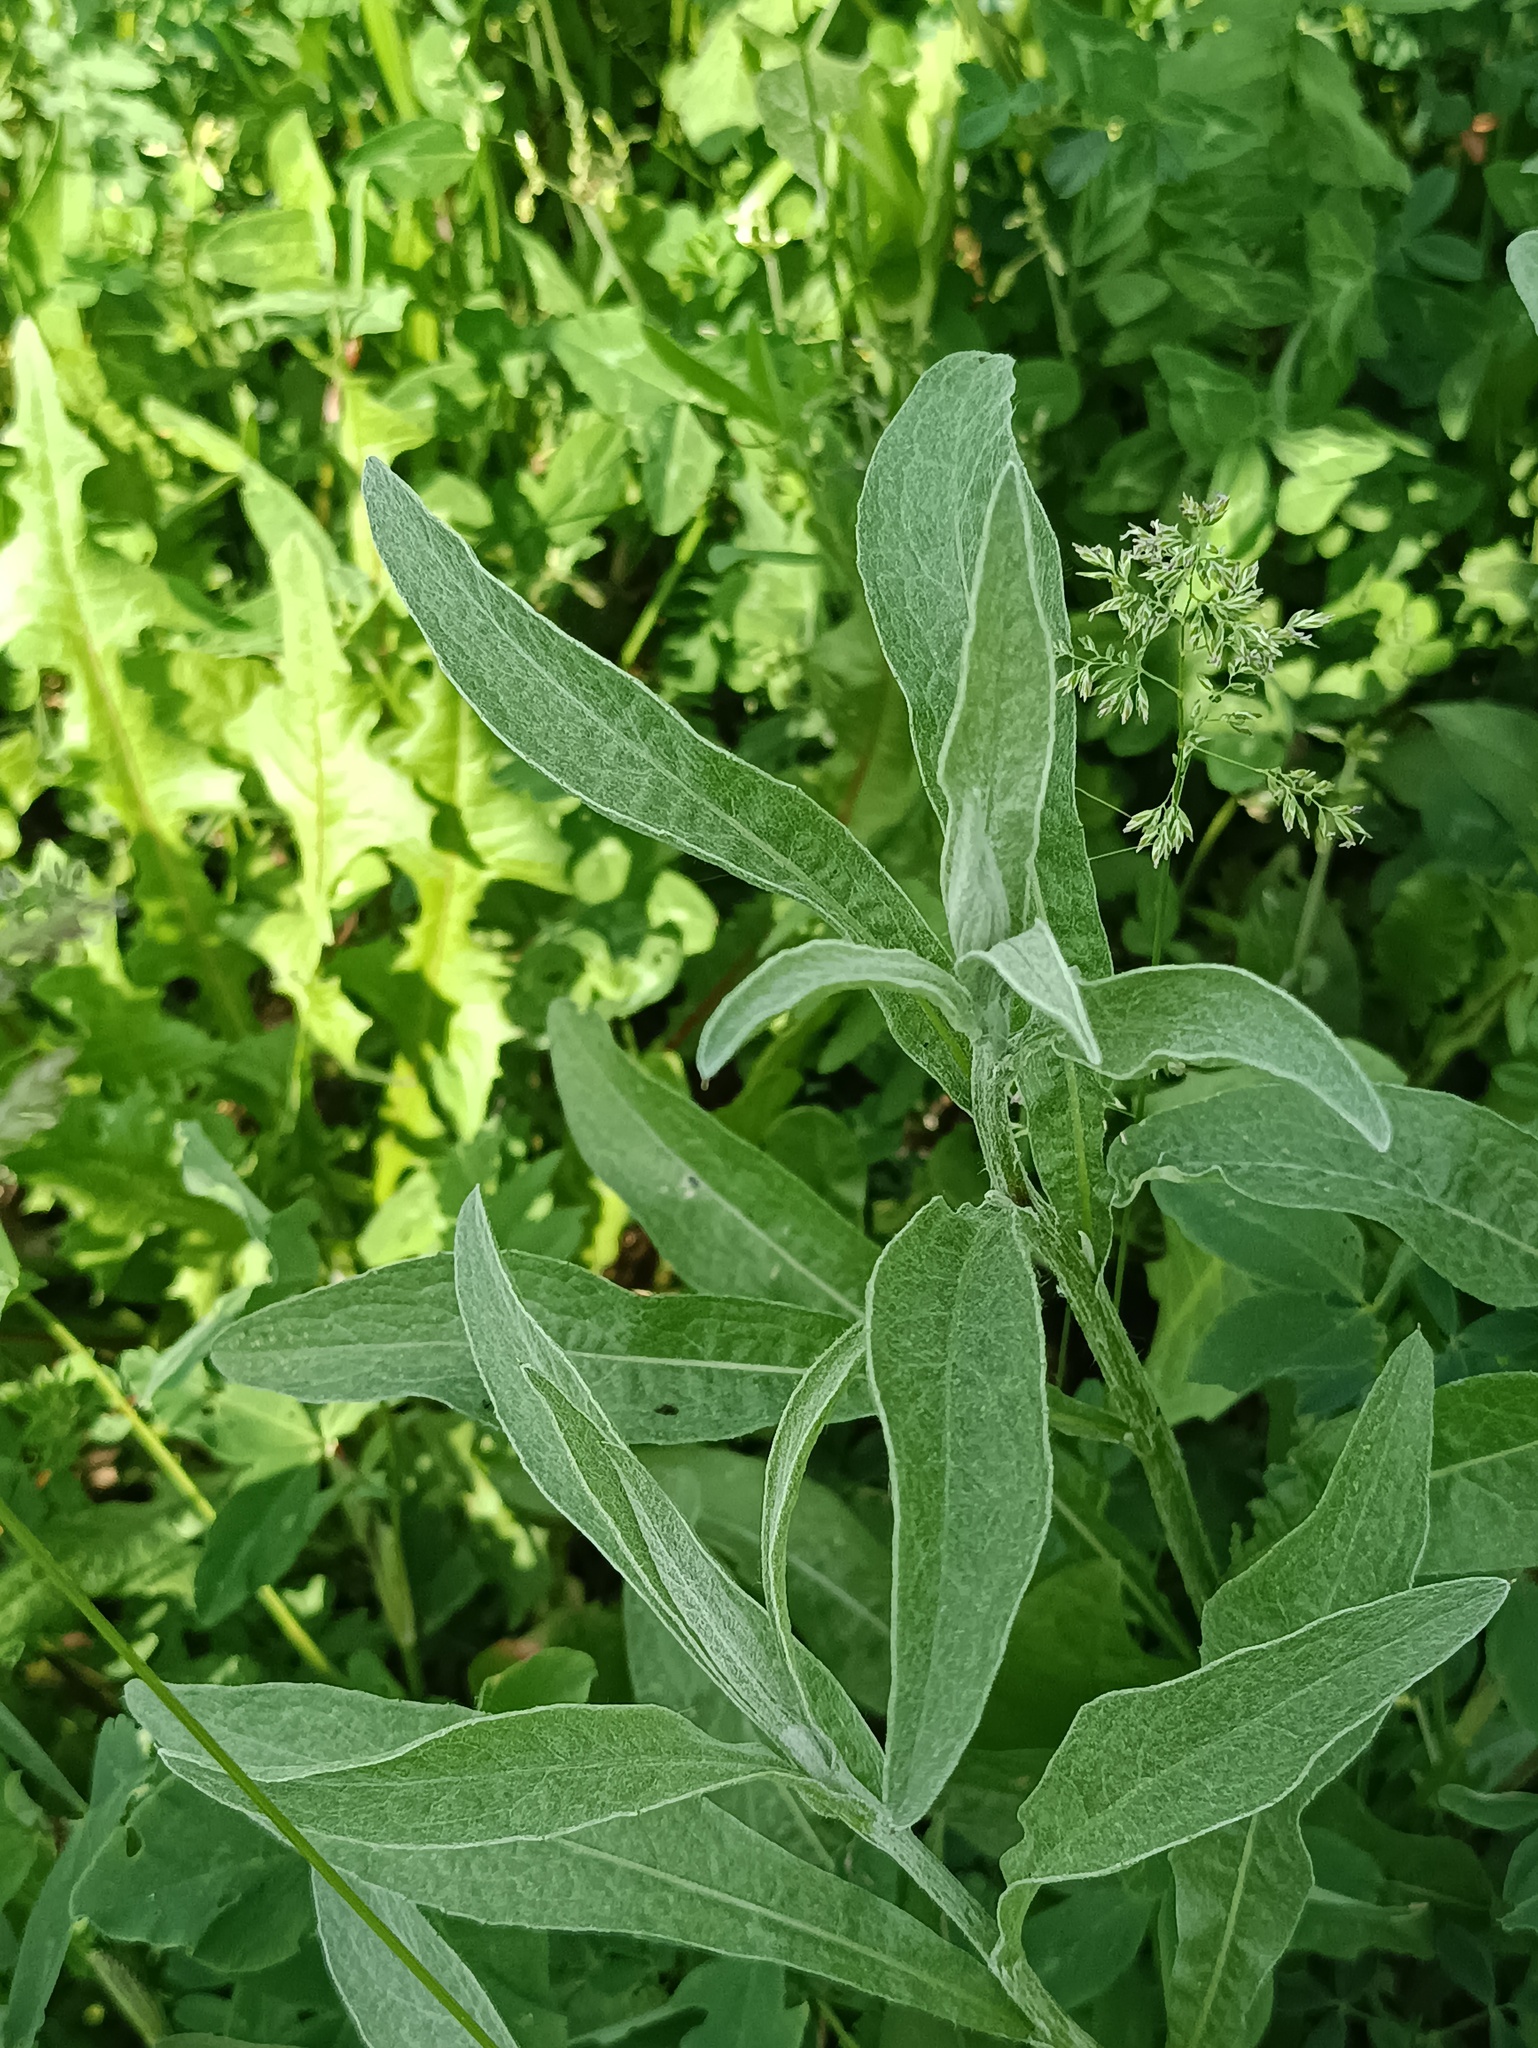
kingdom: Plantae
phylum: Tracheophyta
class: Magnoliopsida
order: Asterales
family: Asteraceae
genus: Centaurea
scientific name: Centaurea jacea
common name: Brown knapweed
